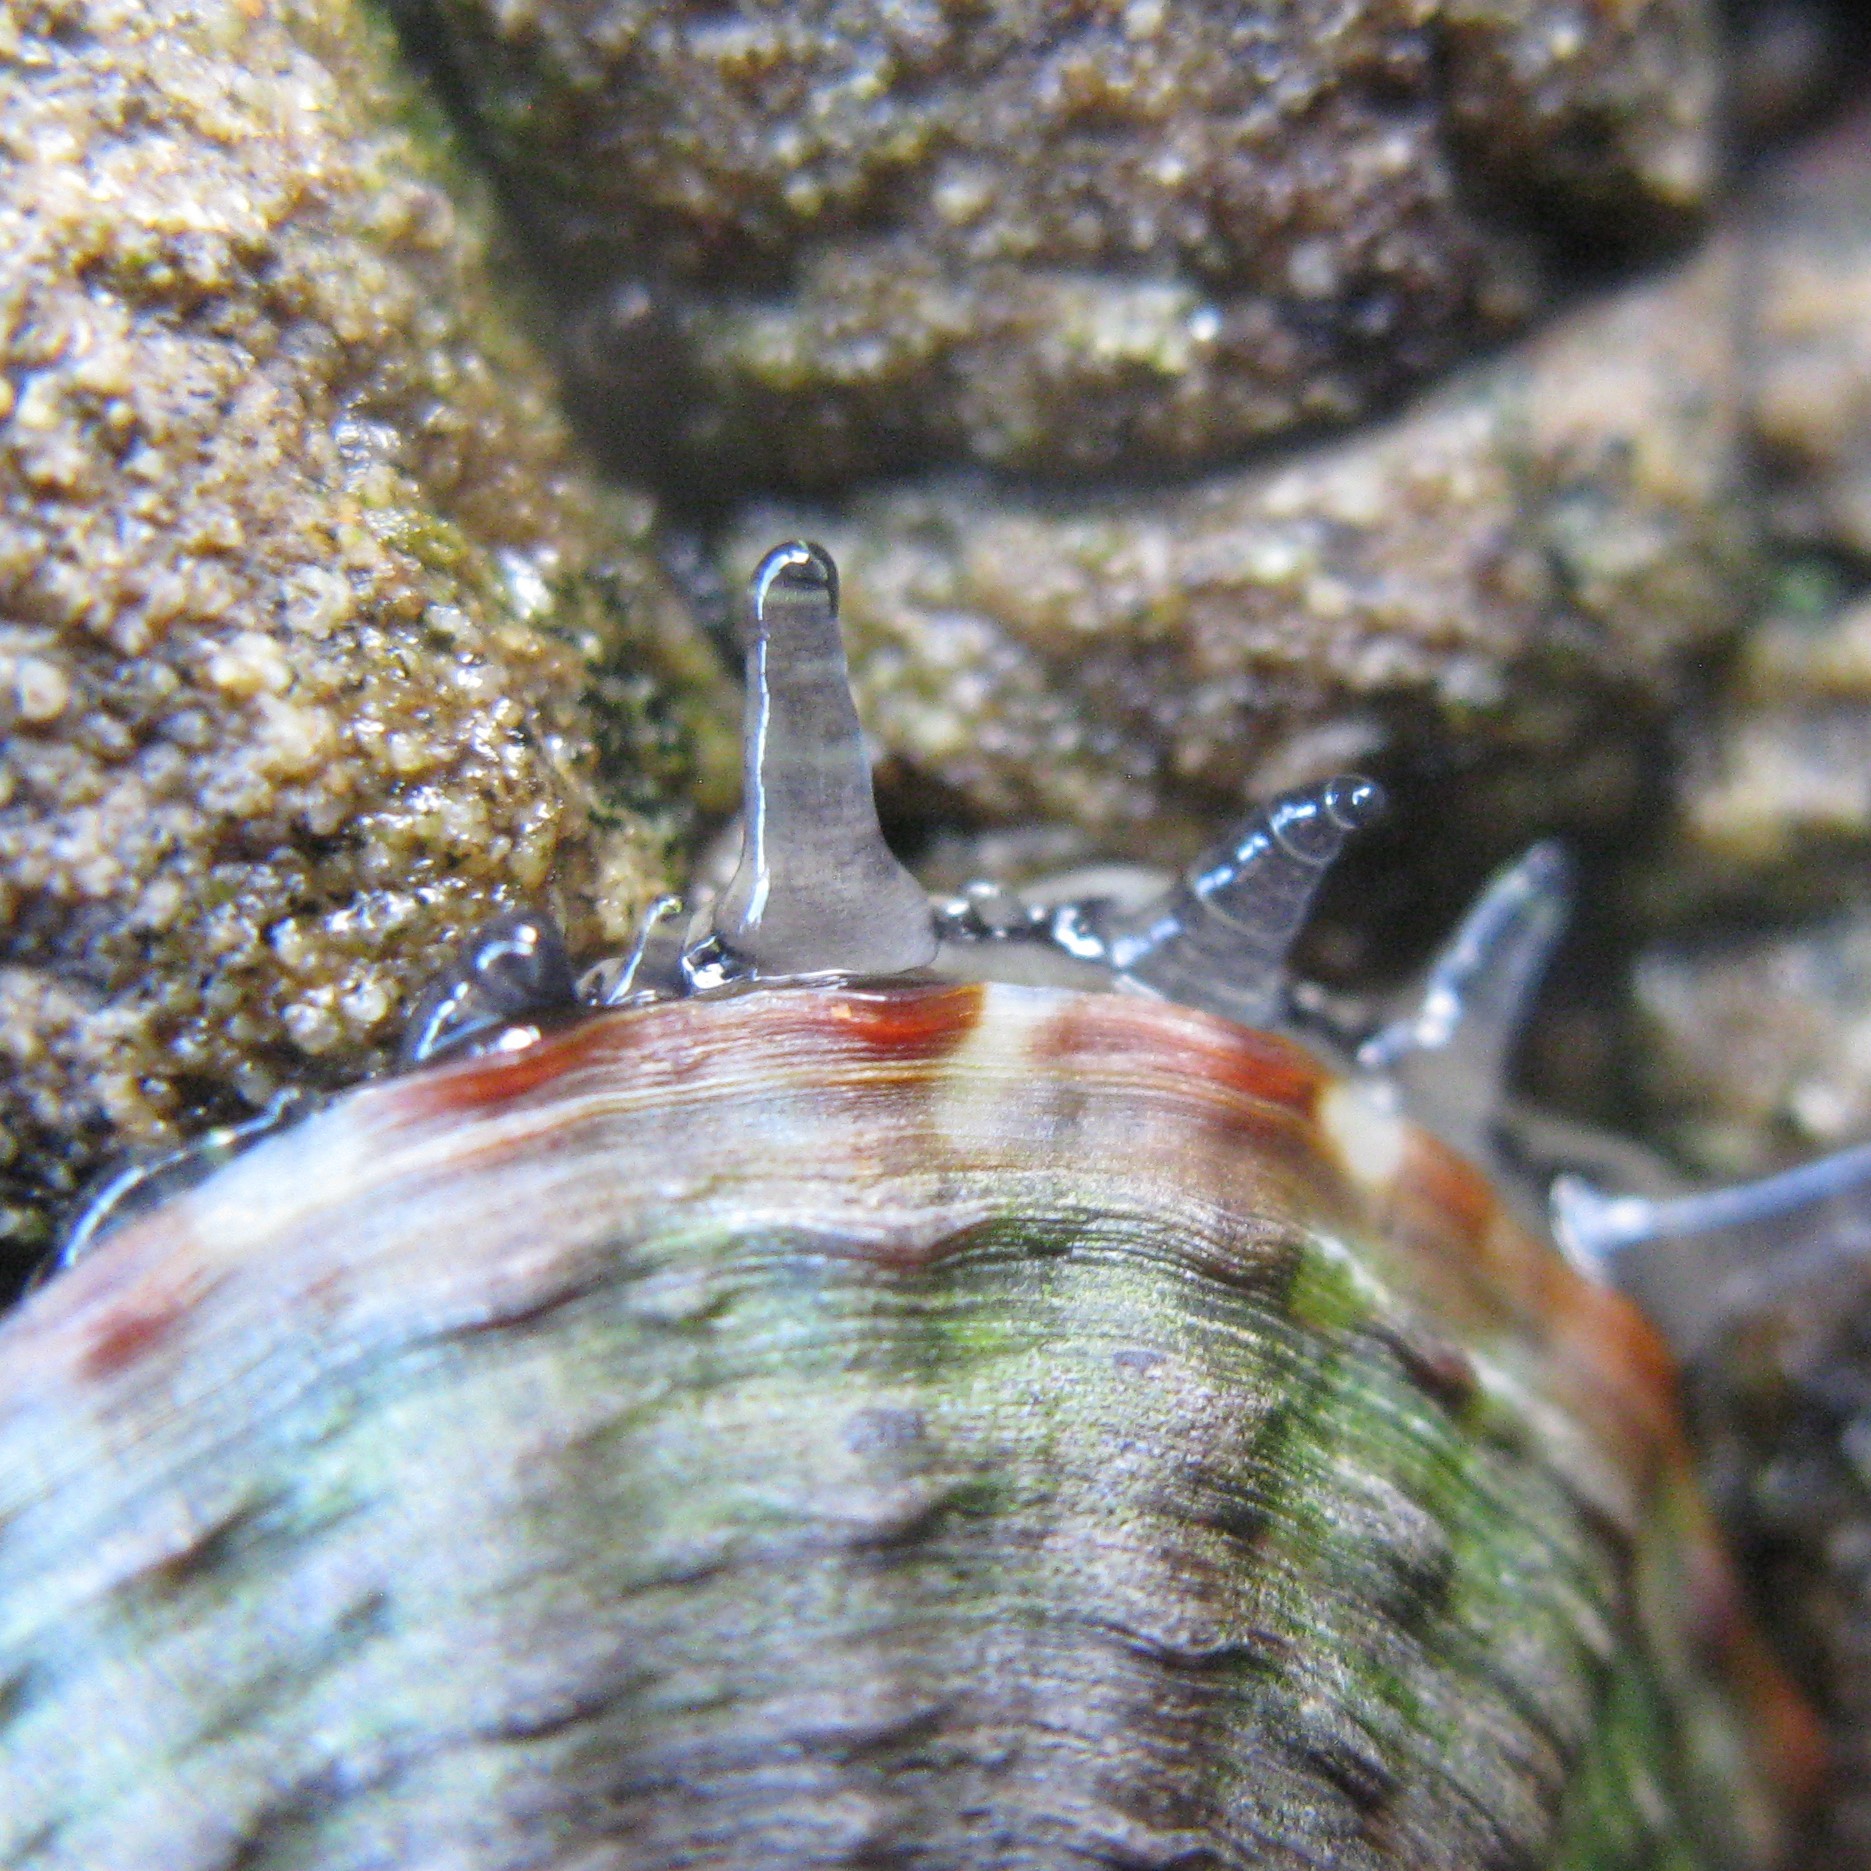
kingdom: Animalia
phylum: Mollusca
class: Gastropoda
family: Nacellidae
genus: Cellana
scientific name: Cellana denticulata
